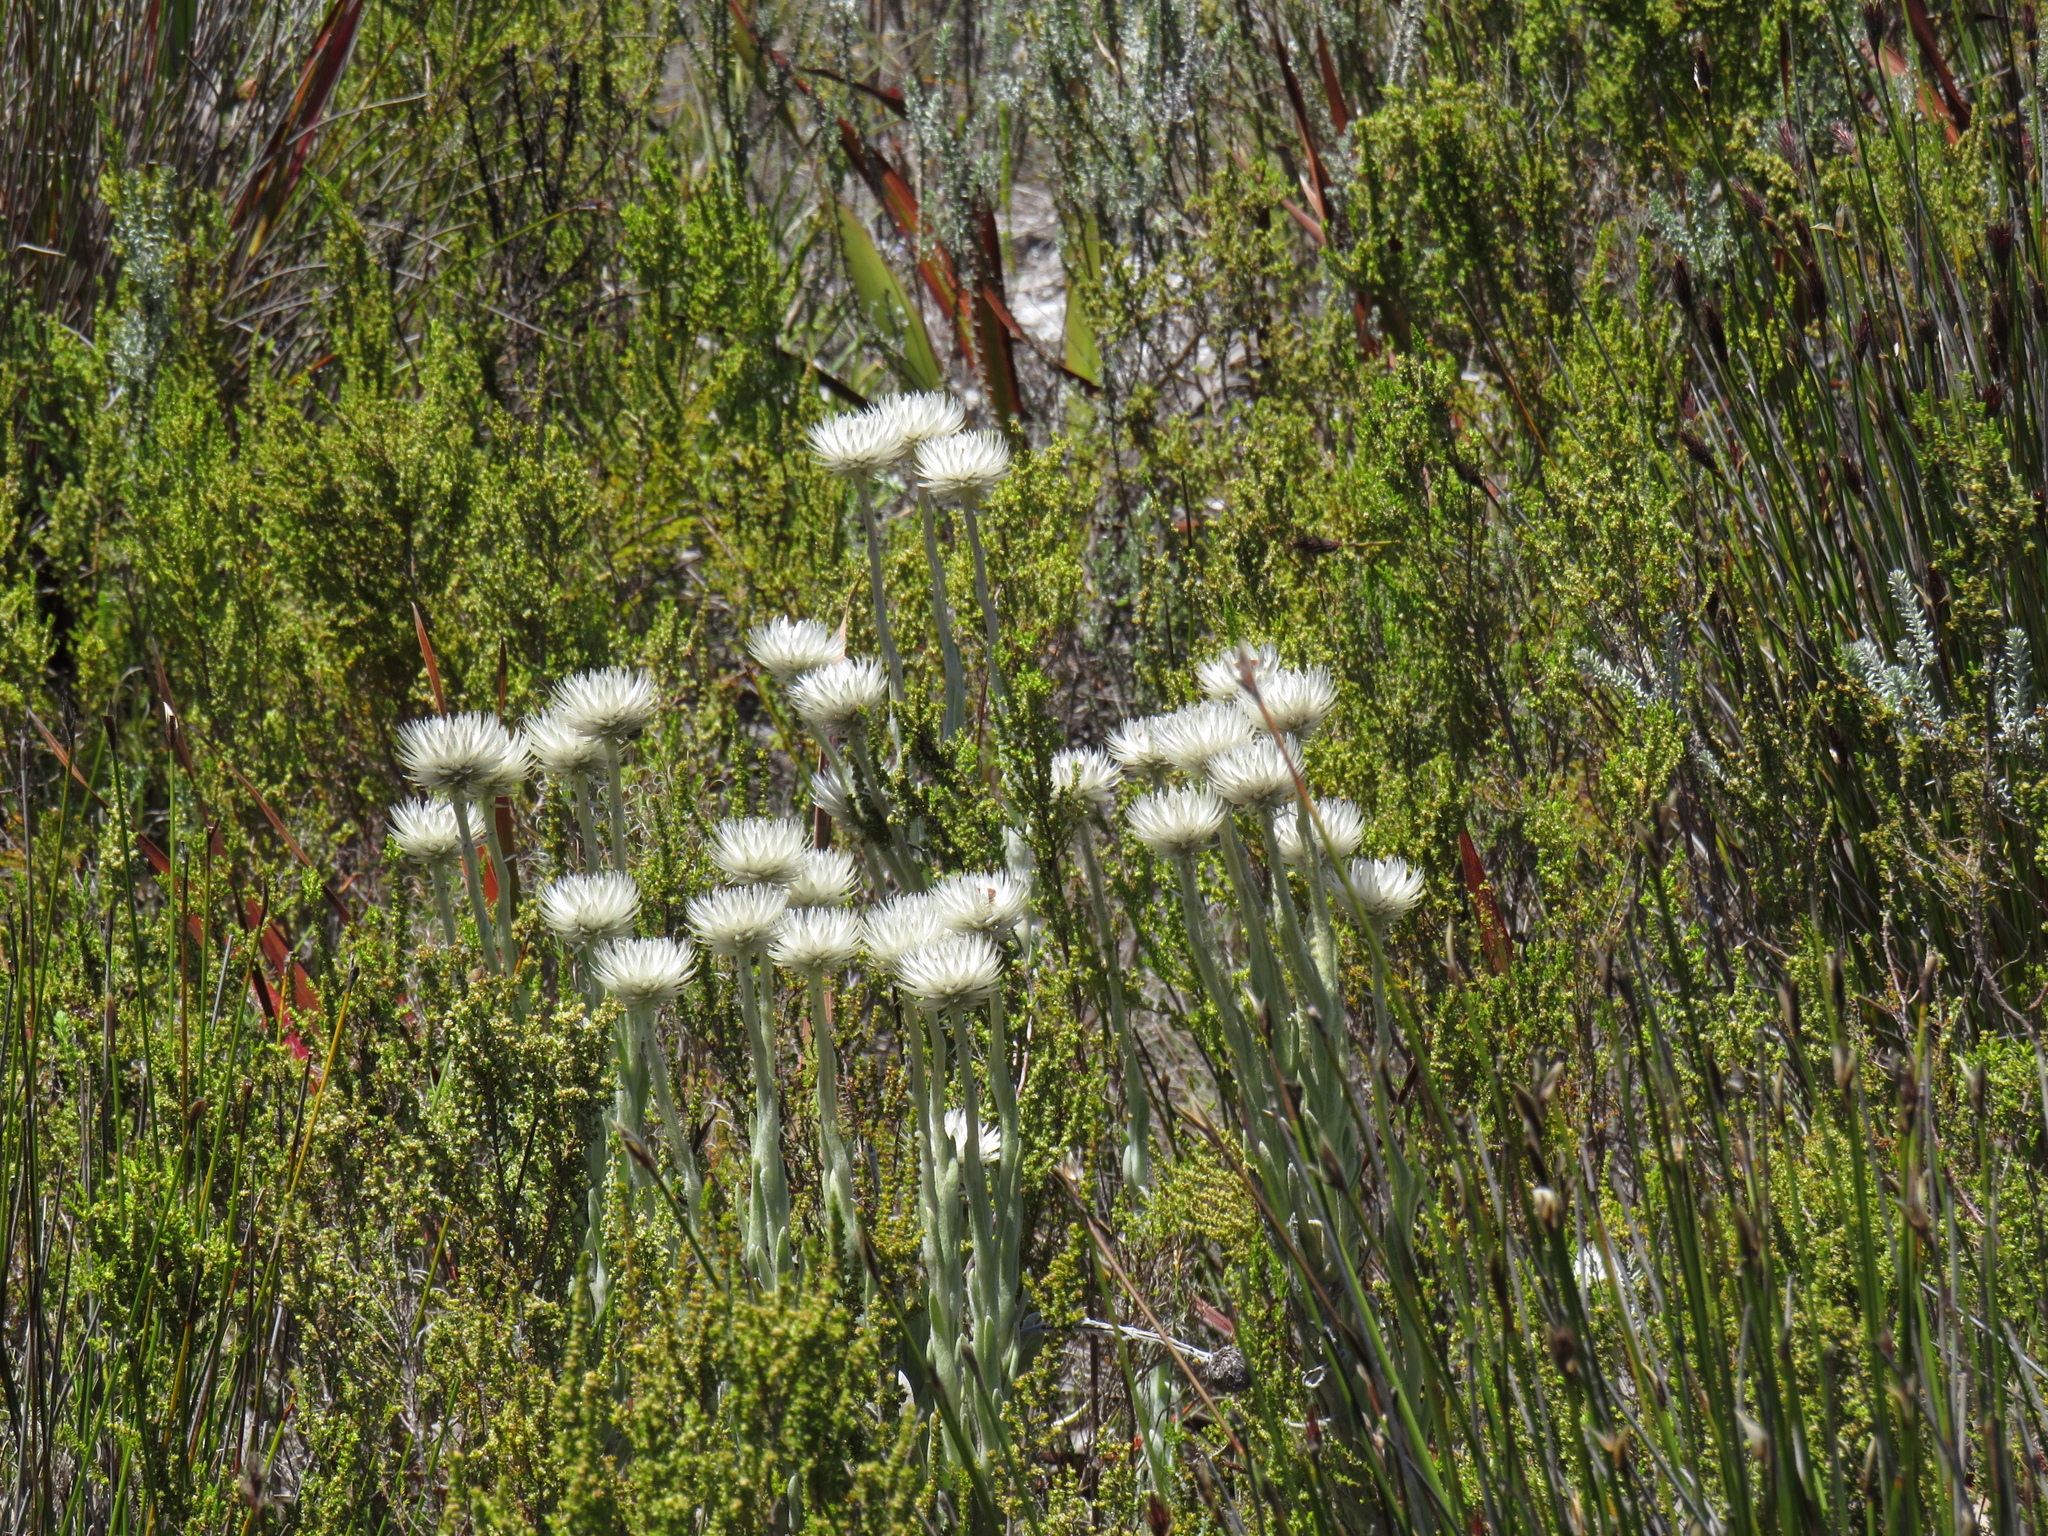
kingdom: Plantae
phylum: Tracheophyta
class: Magnoliopsida
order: Asterales
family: Asteraceae
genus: Syncarpha
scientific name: Syncarpha vestita
